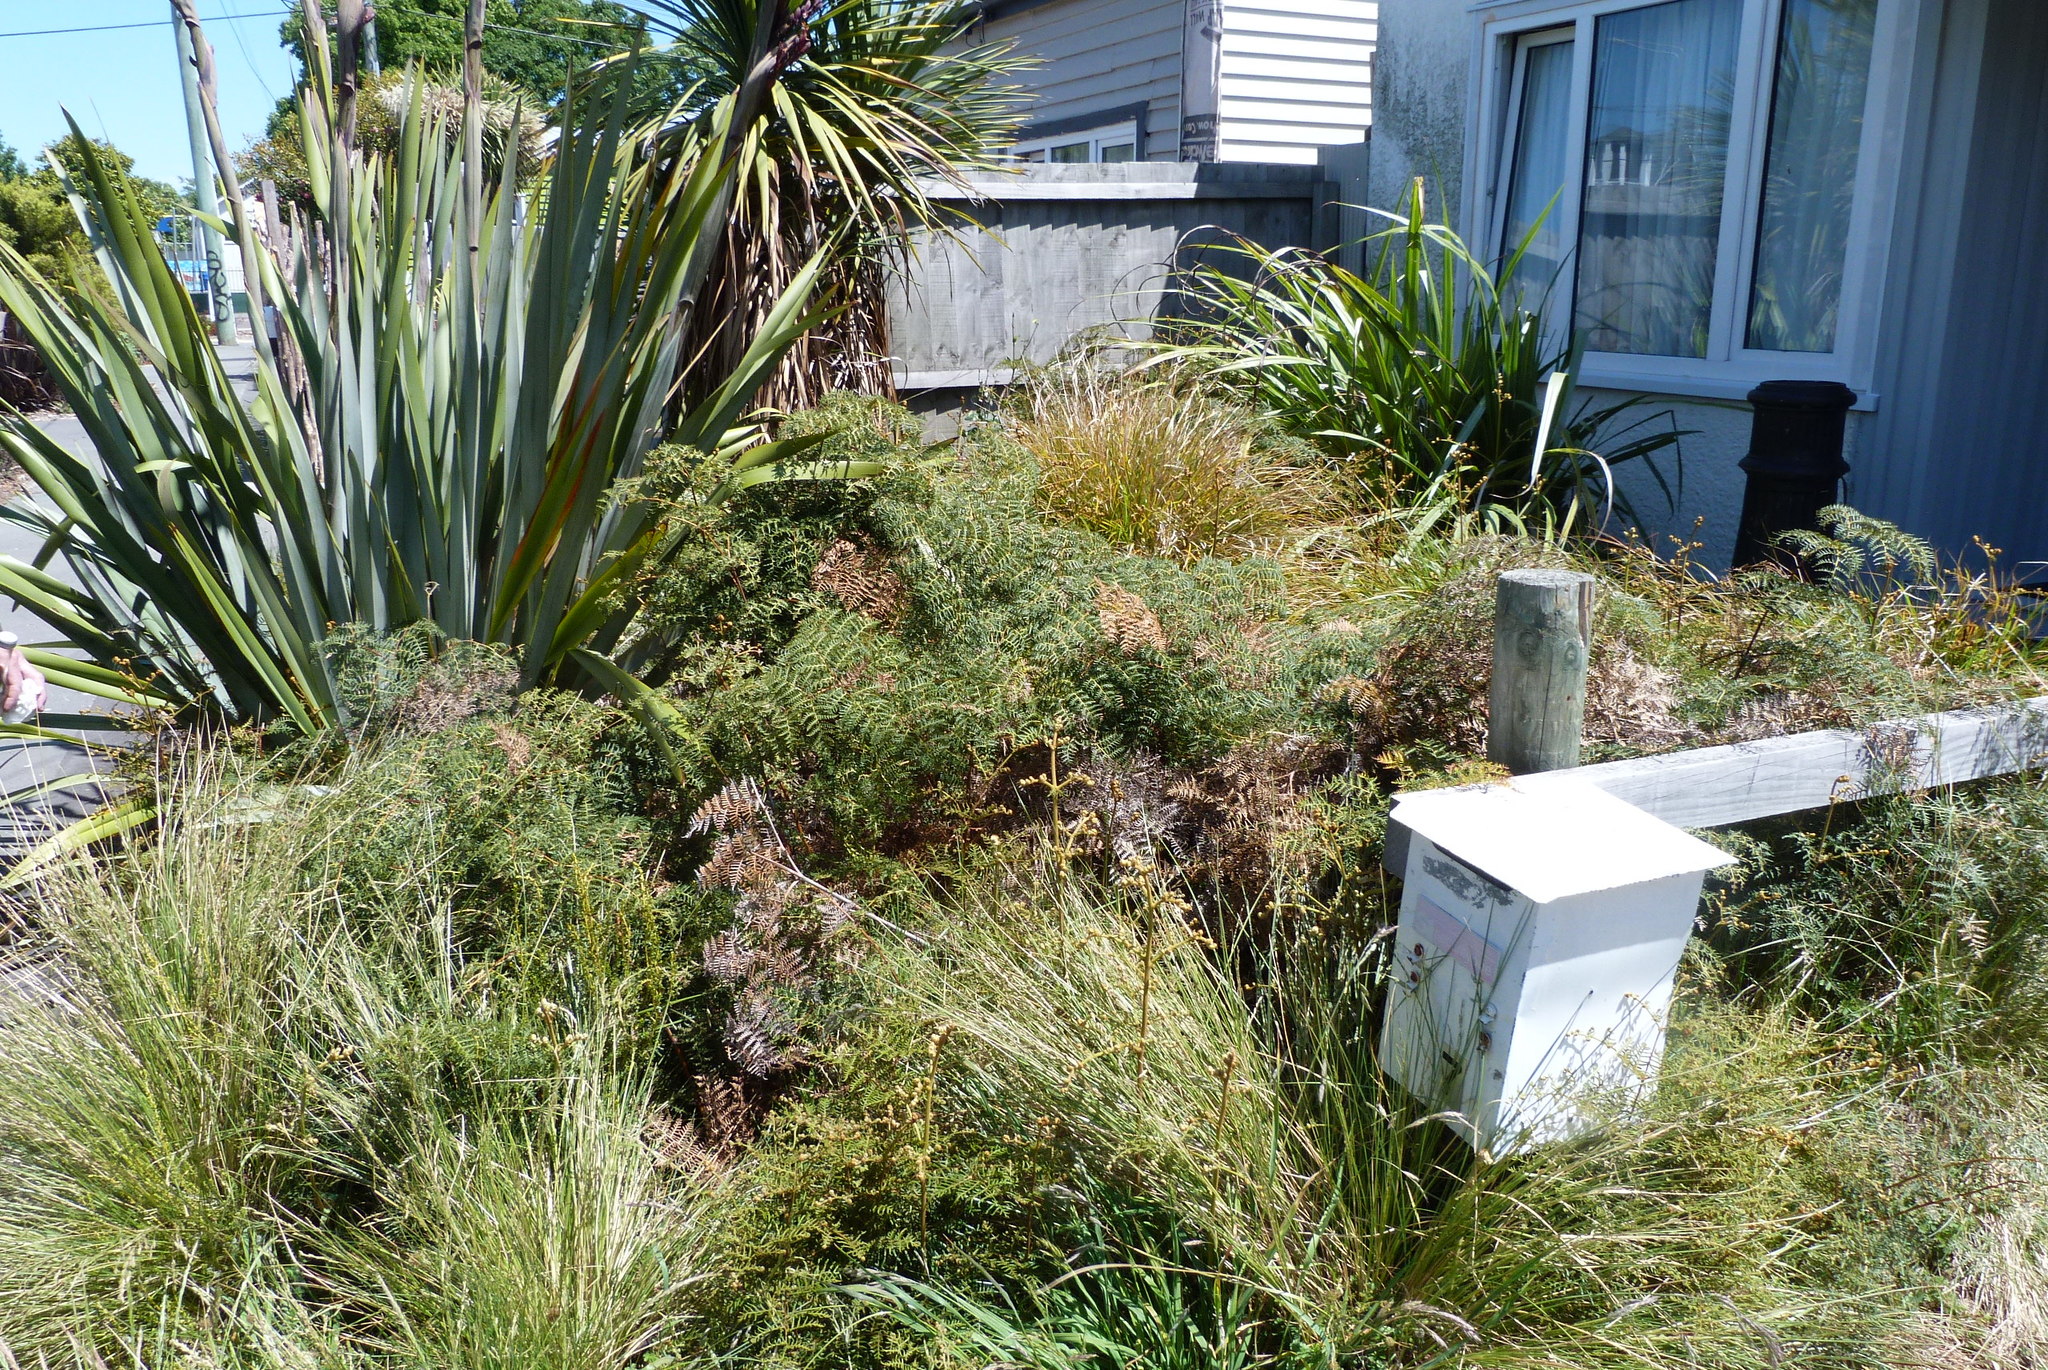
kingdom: Plantae
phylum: Tracheophyta
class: Polypodiopsida
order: Polypodiales
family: Dennstaedtiaceae
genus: Pteridium
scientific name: Pteridium esculentum
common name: Bracken fern
